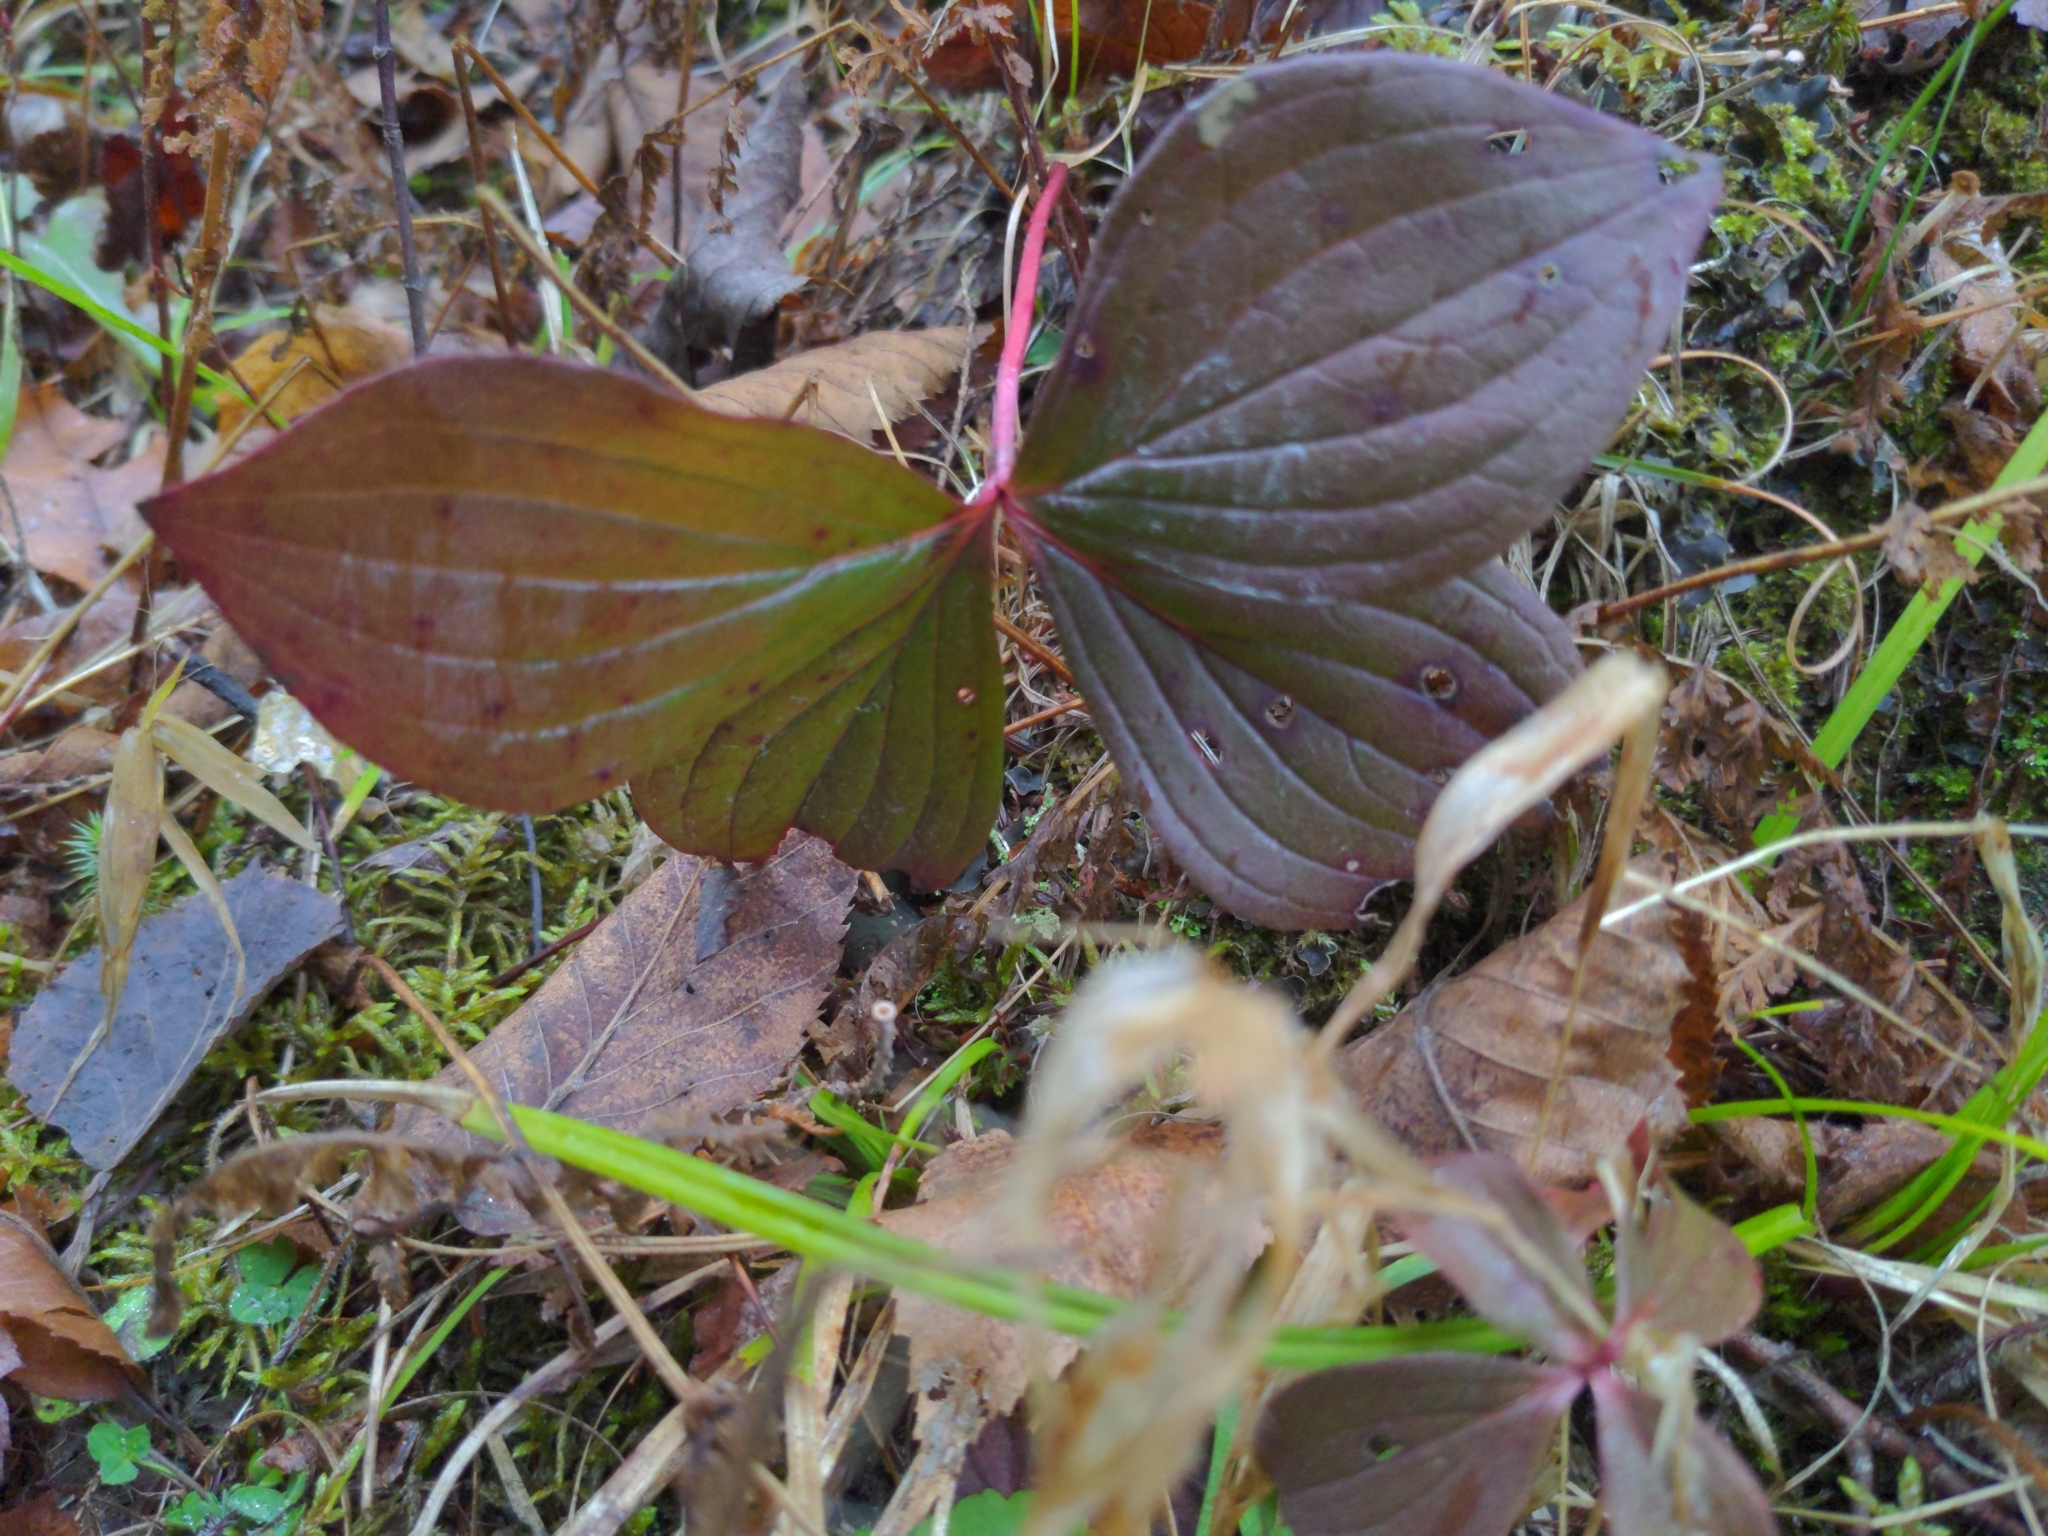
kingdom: Plantae
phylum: Tracheophyta
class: Magnoliopsida
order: Cornales
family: Cornaceae
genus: Cornus
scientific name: Cornus canadensis
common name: Creeping dogwood
